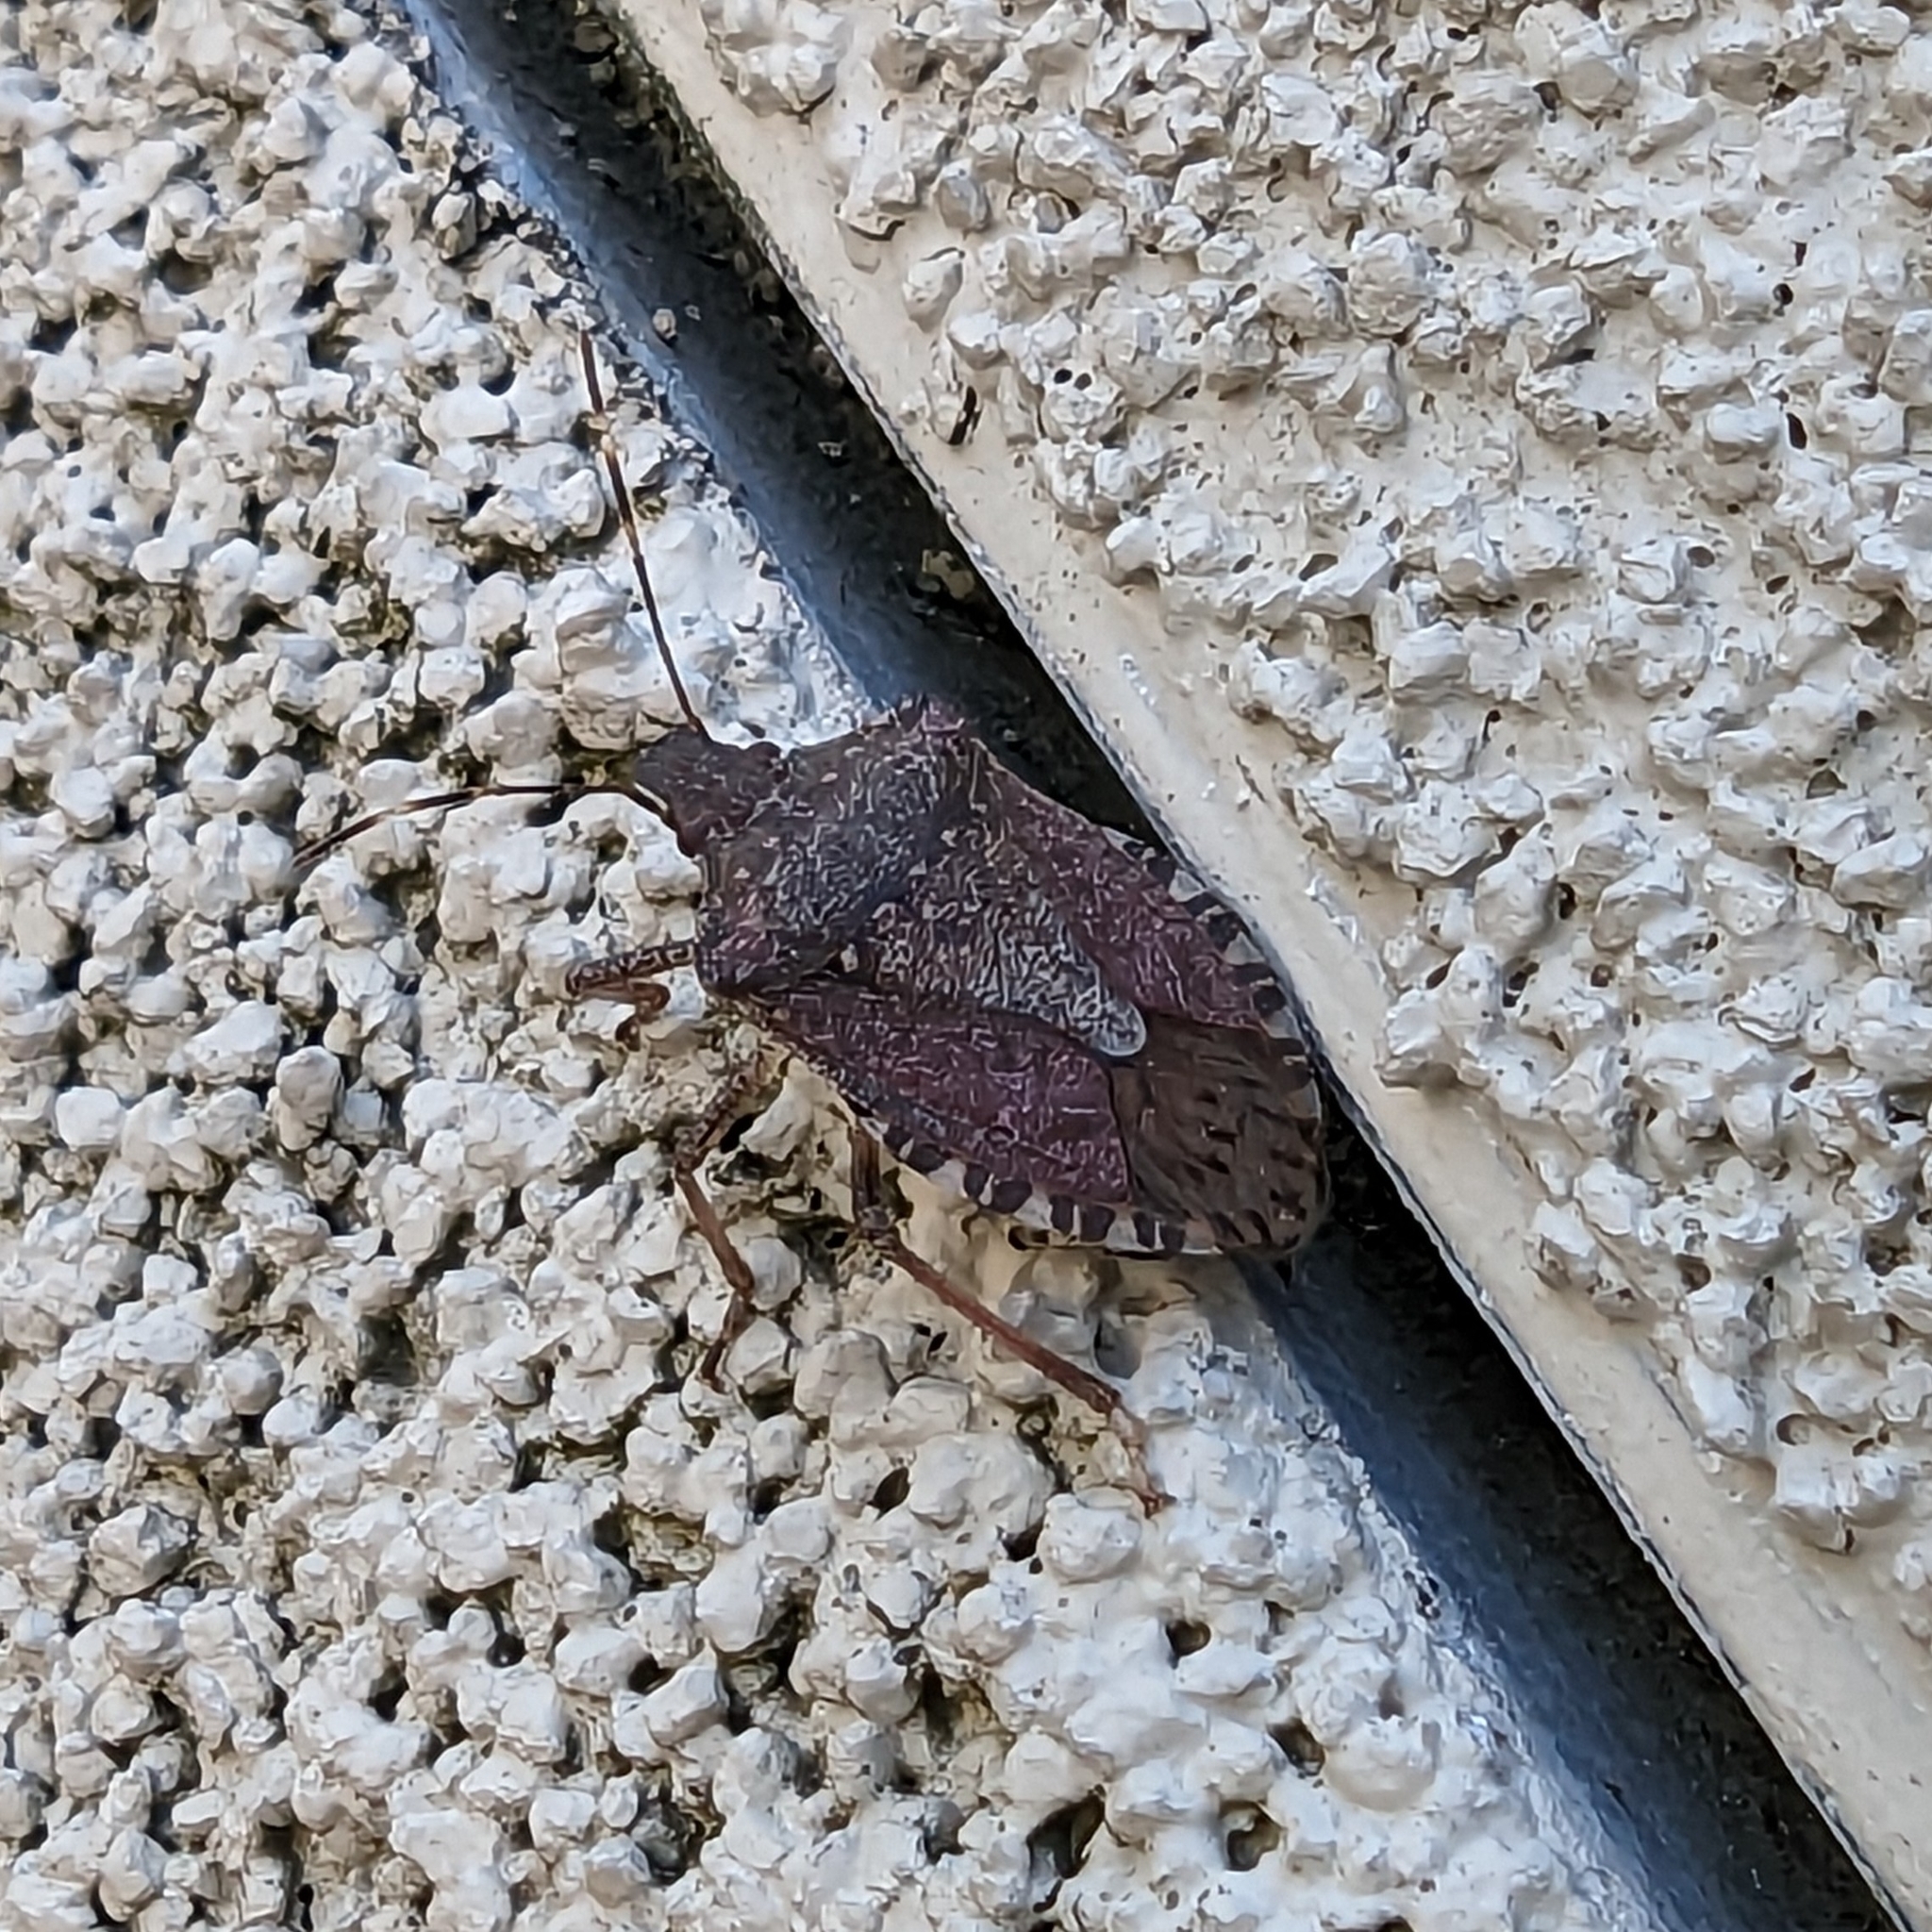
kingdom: Animalia
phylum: Arthropoda
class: Insecta
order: Hemiptera
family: Pentatomidae
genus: Halyomorpha
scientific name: Halyomorpha halys
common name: Brown marmorated stink bug
